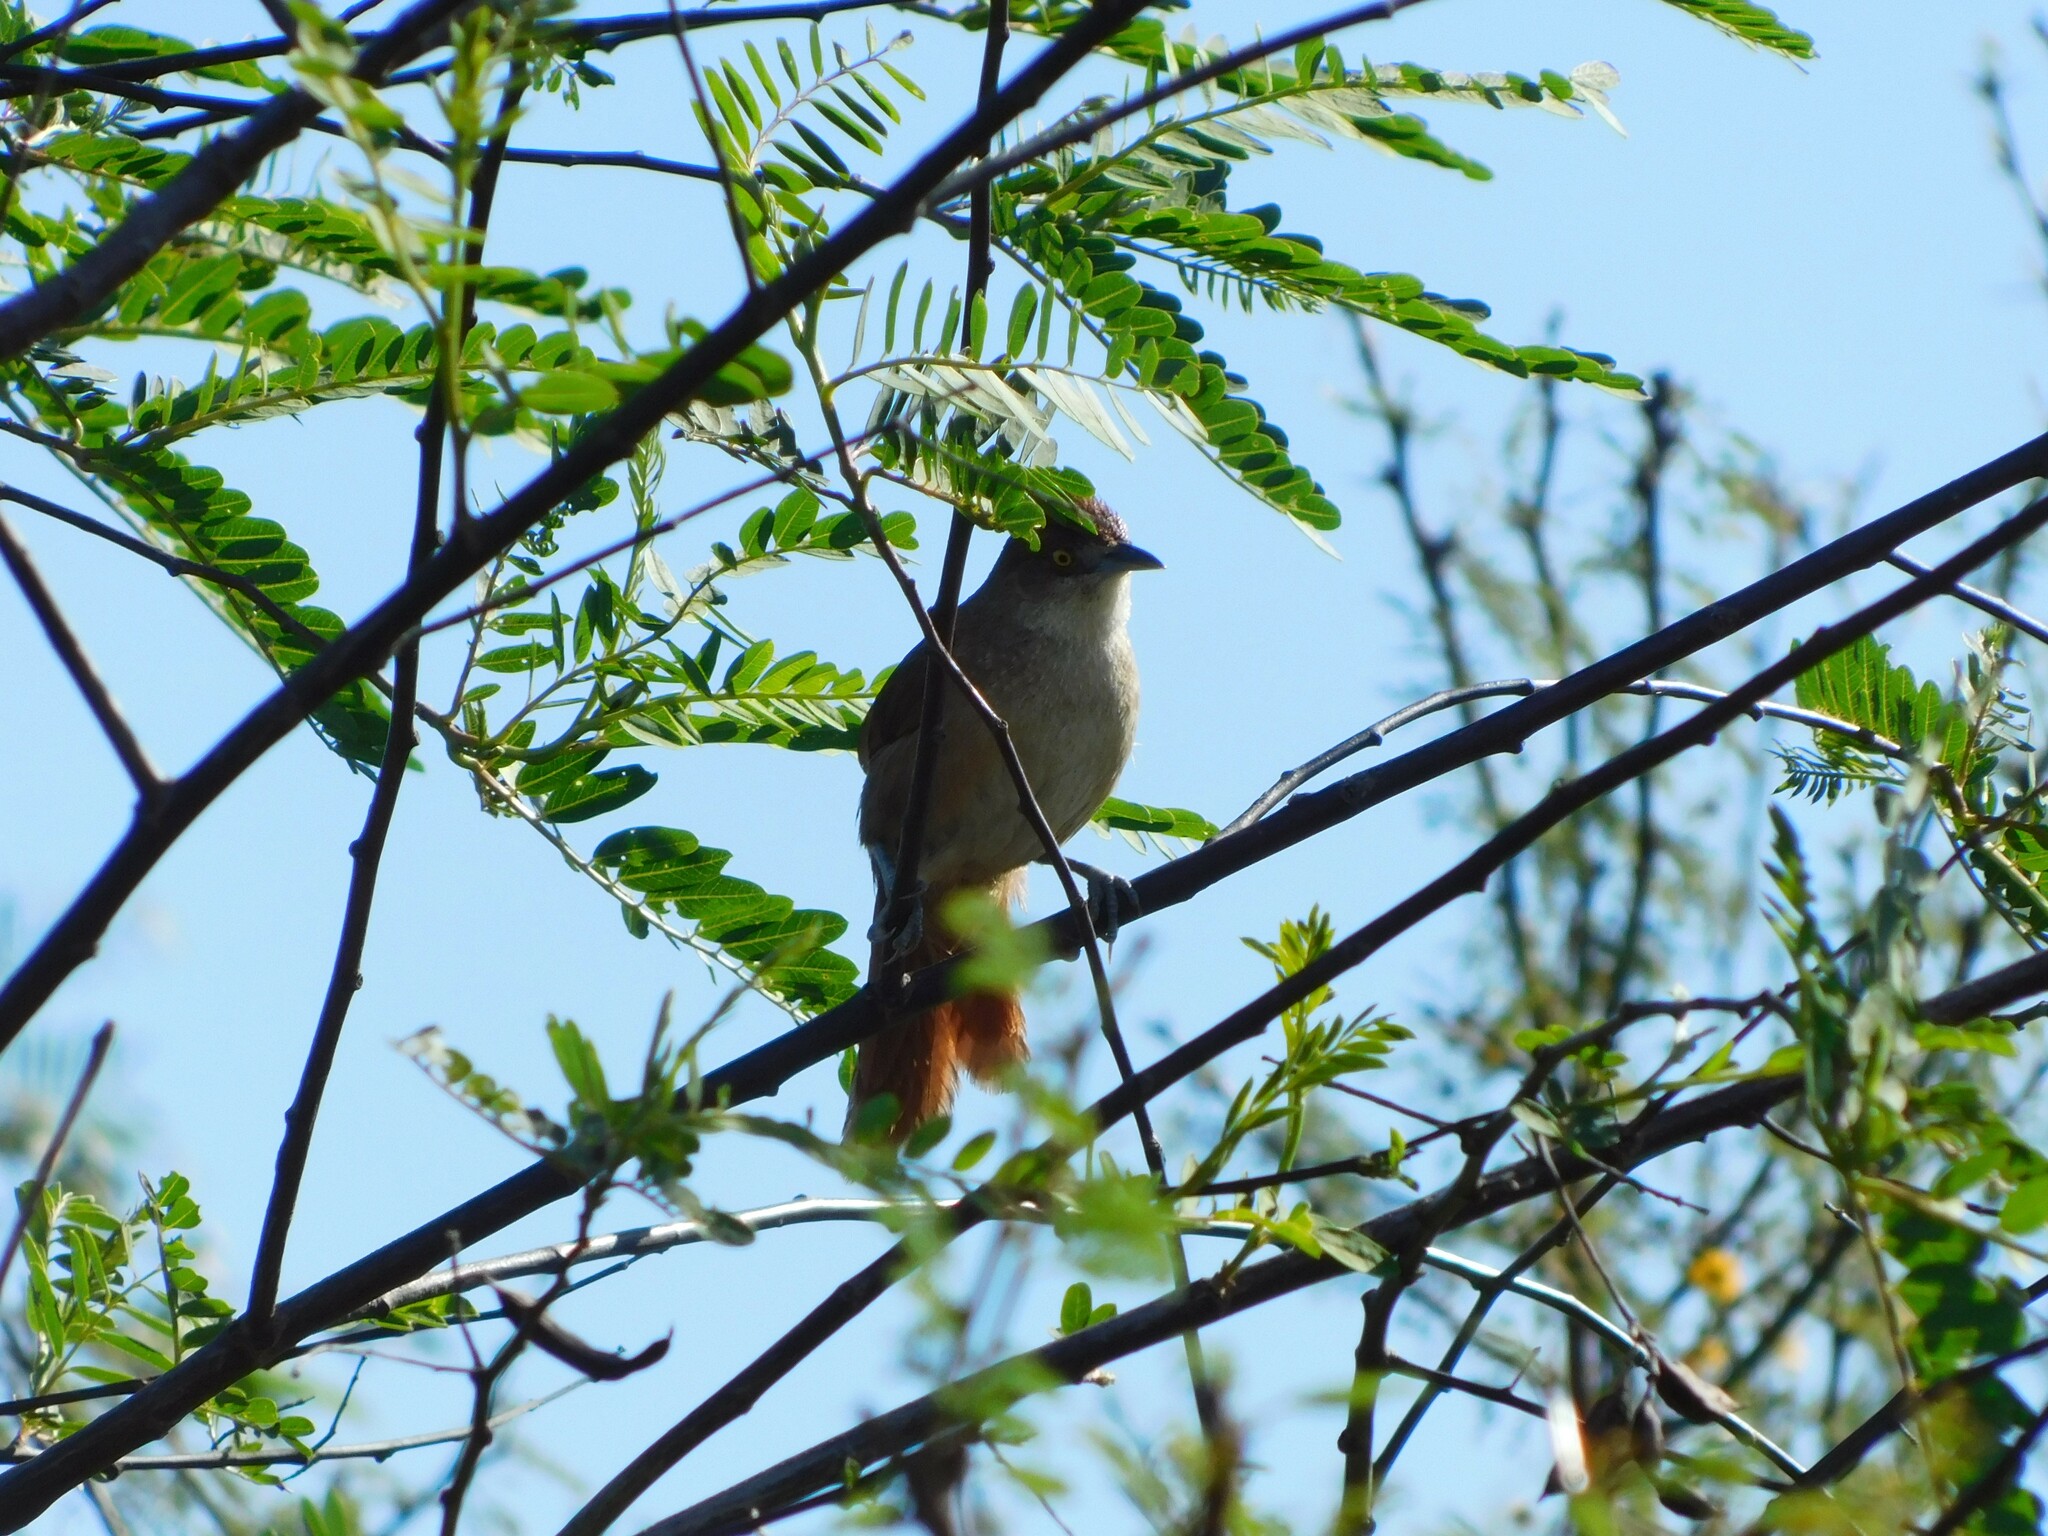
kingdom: Animalia
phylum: Chordata
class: Aves
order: Passeriformes
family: Furnariidae
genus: Phacellodomus
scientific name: Phacellodomus ruber
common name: Greater thornbird
